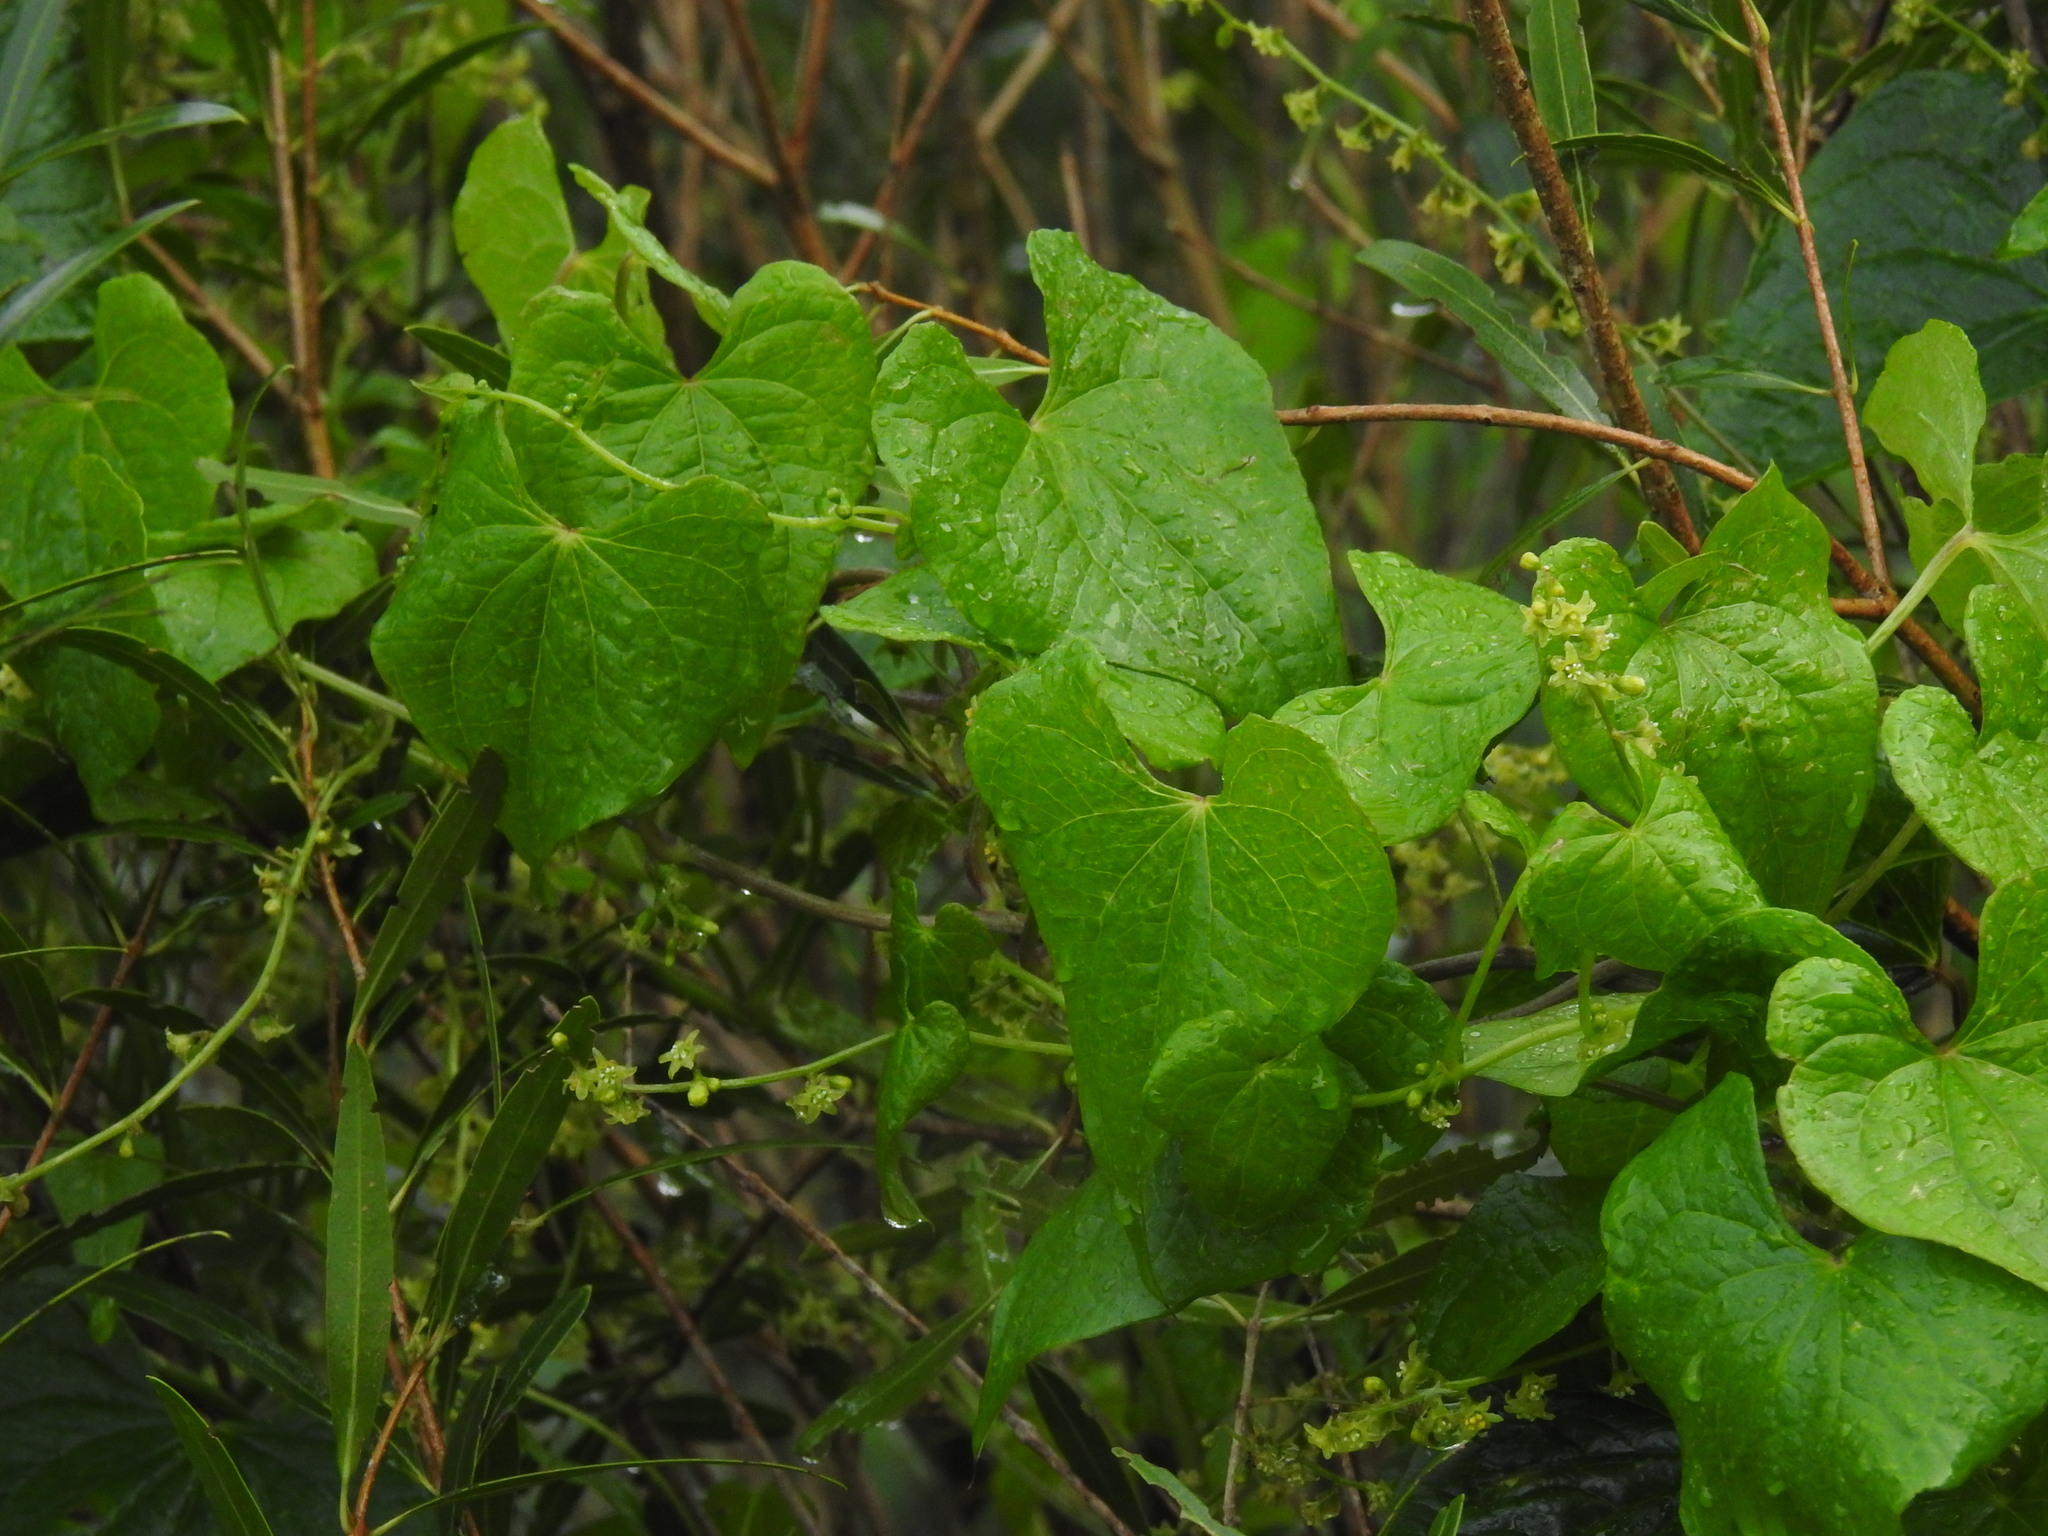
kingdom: Plantae
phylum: Tracheophyta
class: Liliopsida
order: Dioscoreales
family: Dioscoreaceae
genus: Dioscorea
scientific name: Dioscorea communis
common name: Black-bindweed
